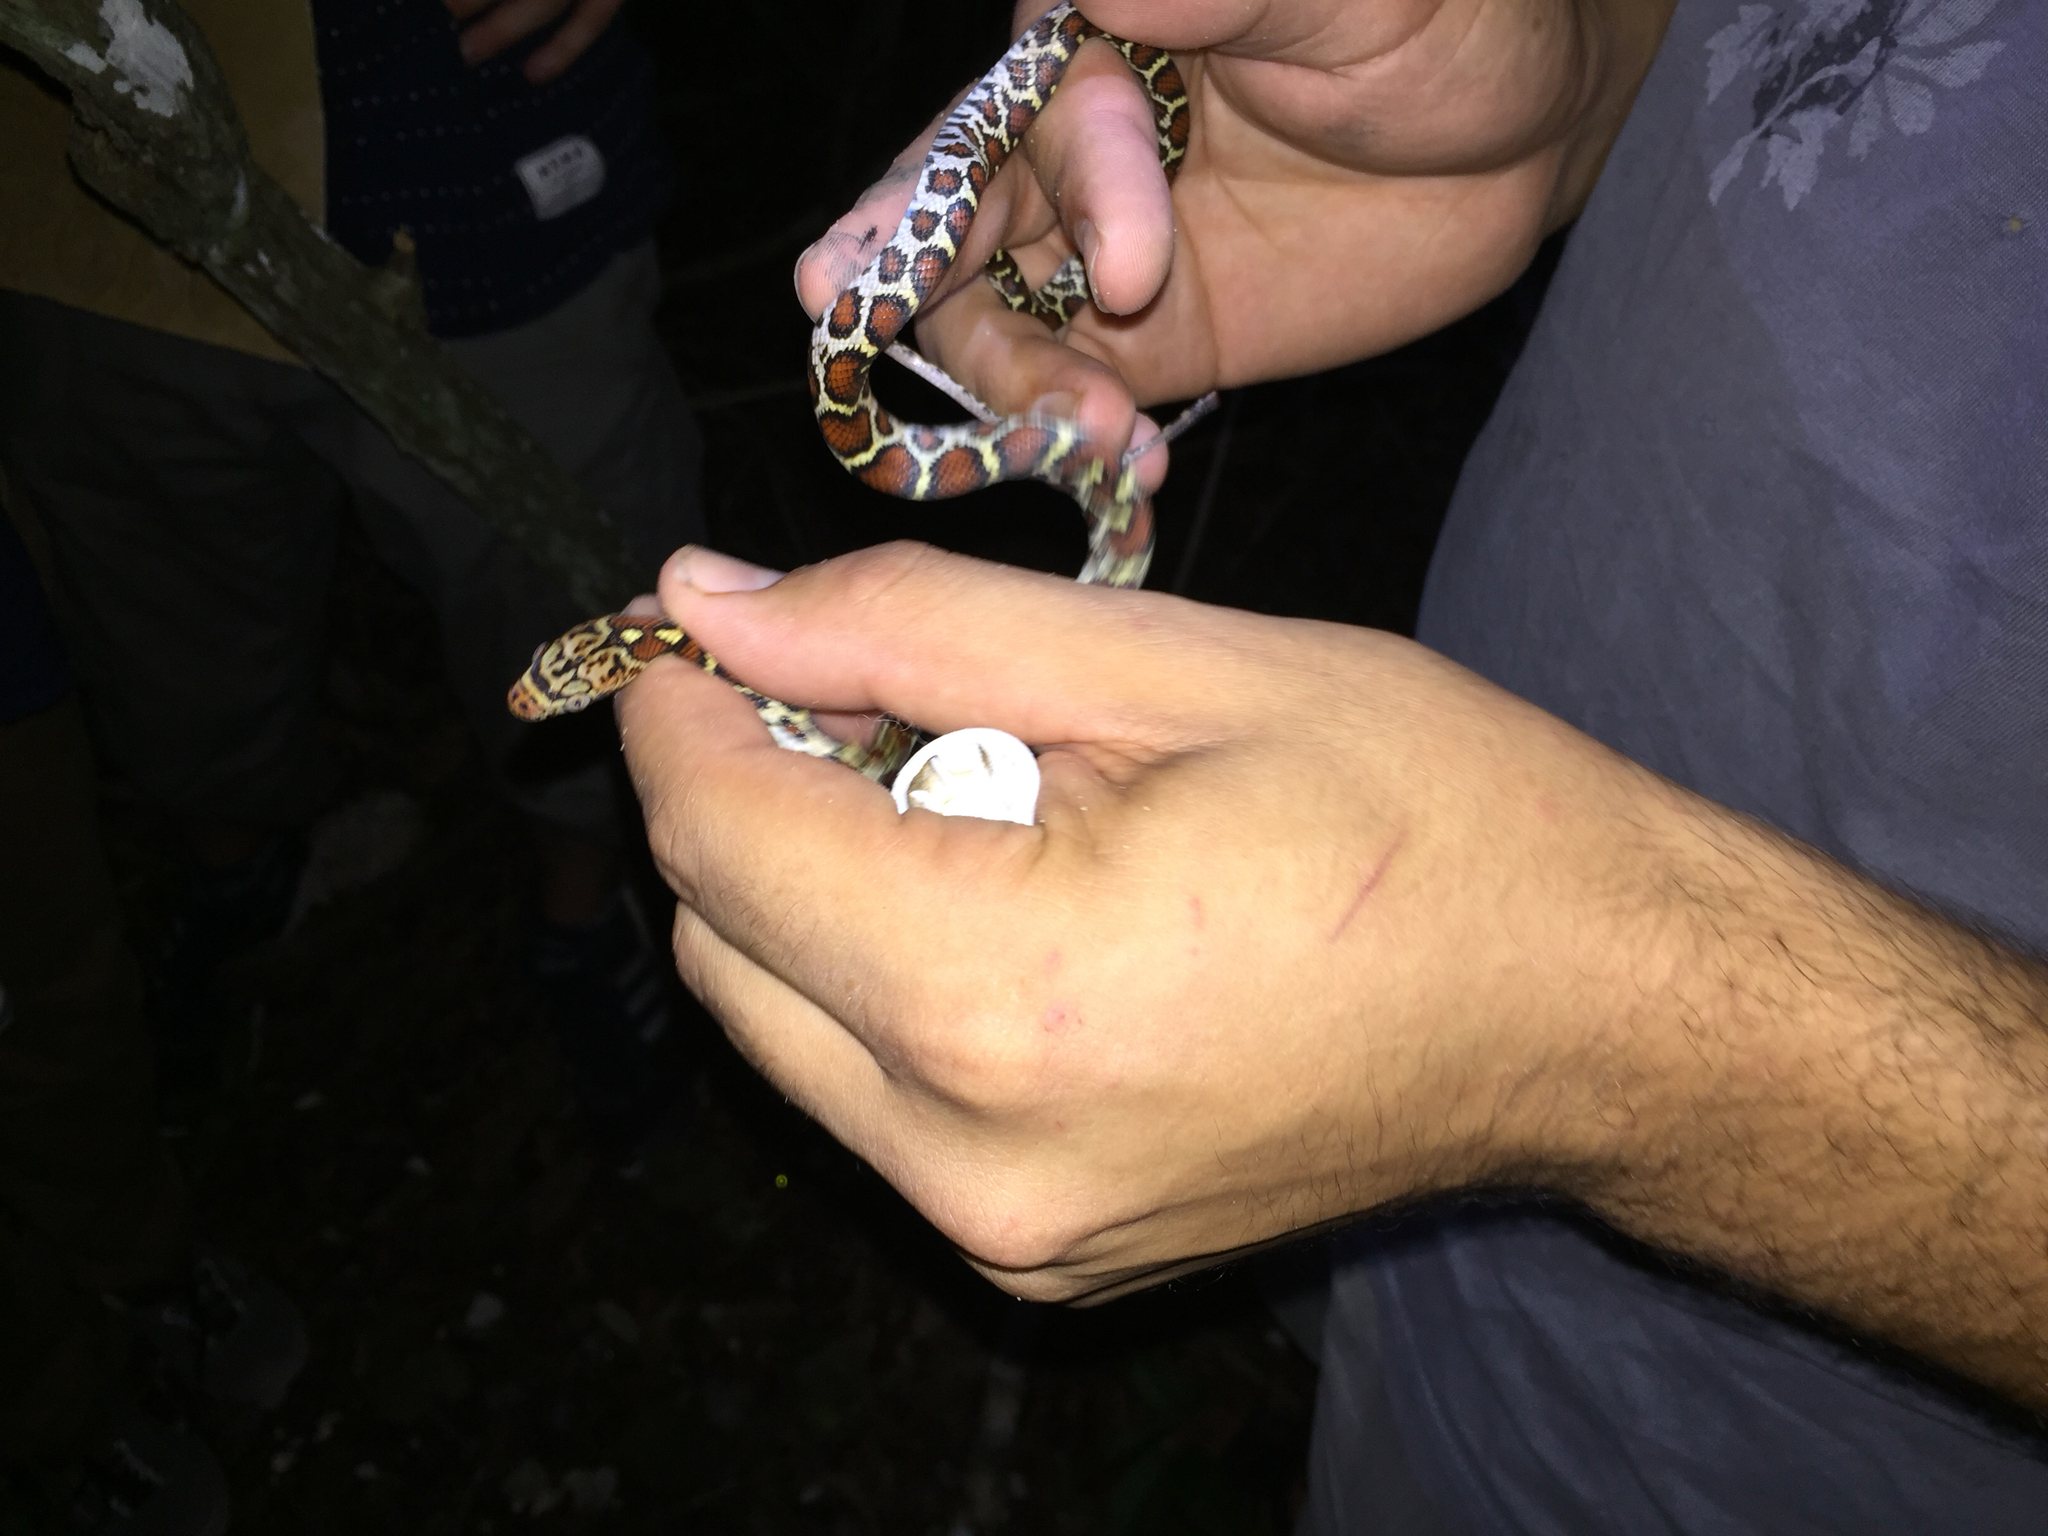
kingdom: Animalia
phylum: Chordata
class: Squamata
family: Colubridae
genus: Pseudelaphe
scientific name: Pseudelaphe flavirufa
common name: Yellow-red rat snake
